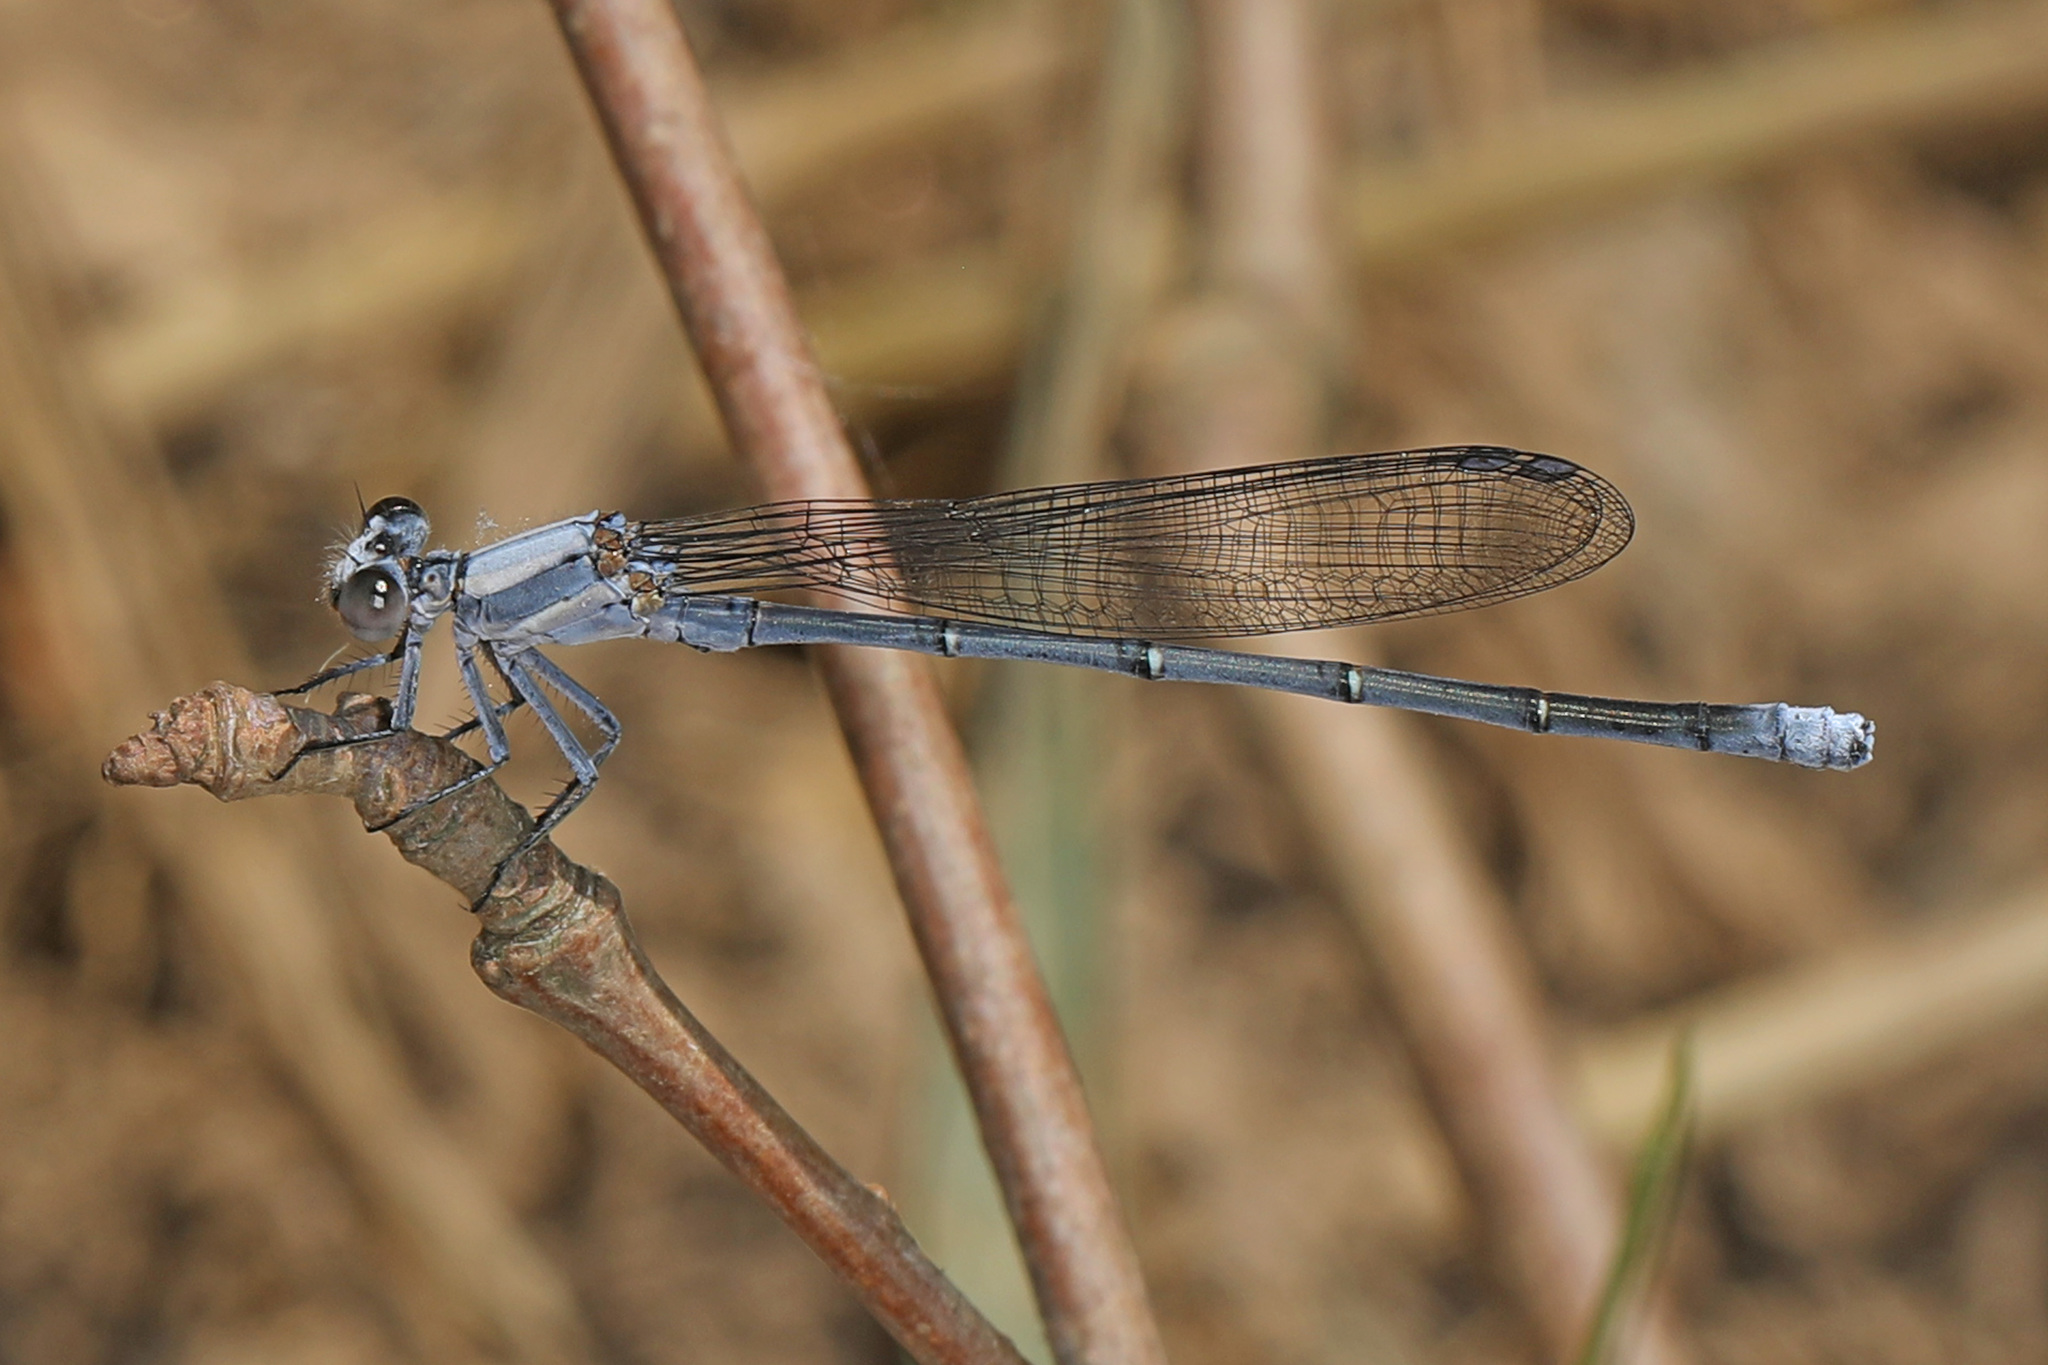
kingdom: Animalia
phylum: Arthropoda
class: Insecta
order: Odonata
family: Coenagrionidae
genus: Argia
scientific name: Argia moesta
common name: Powdered dancer
